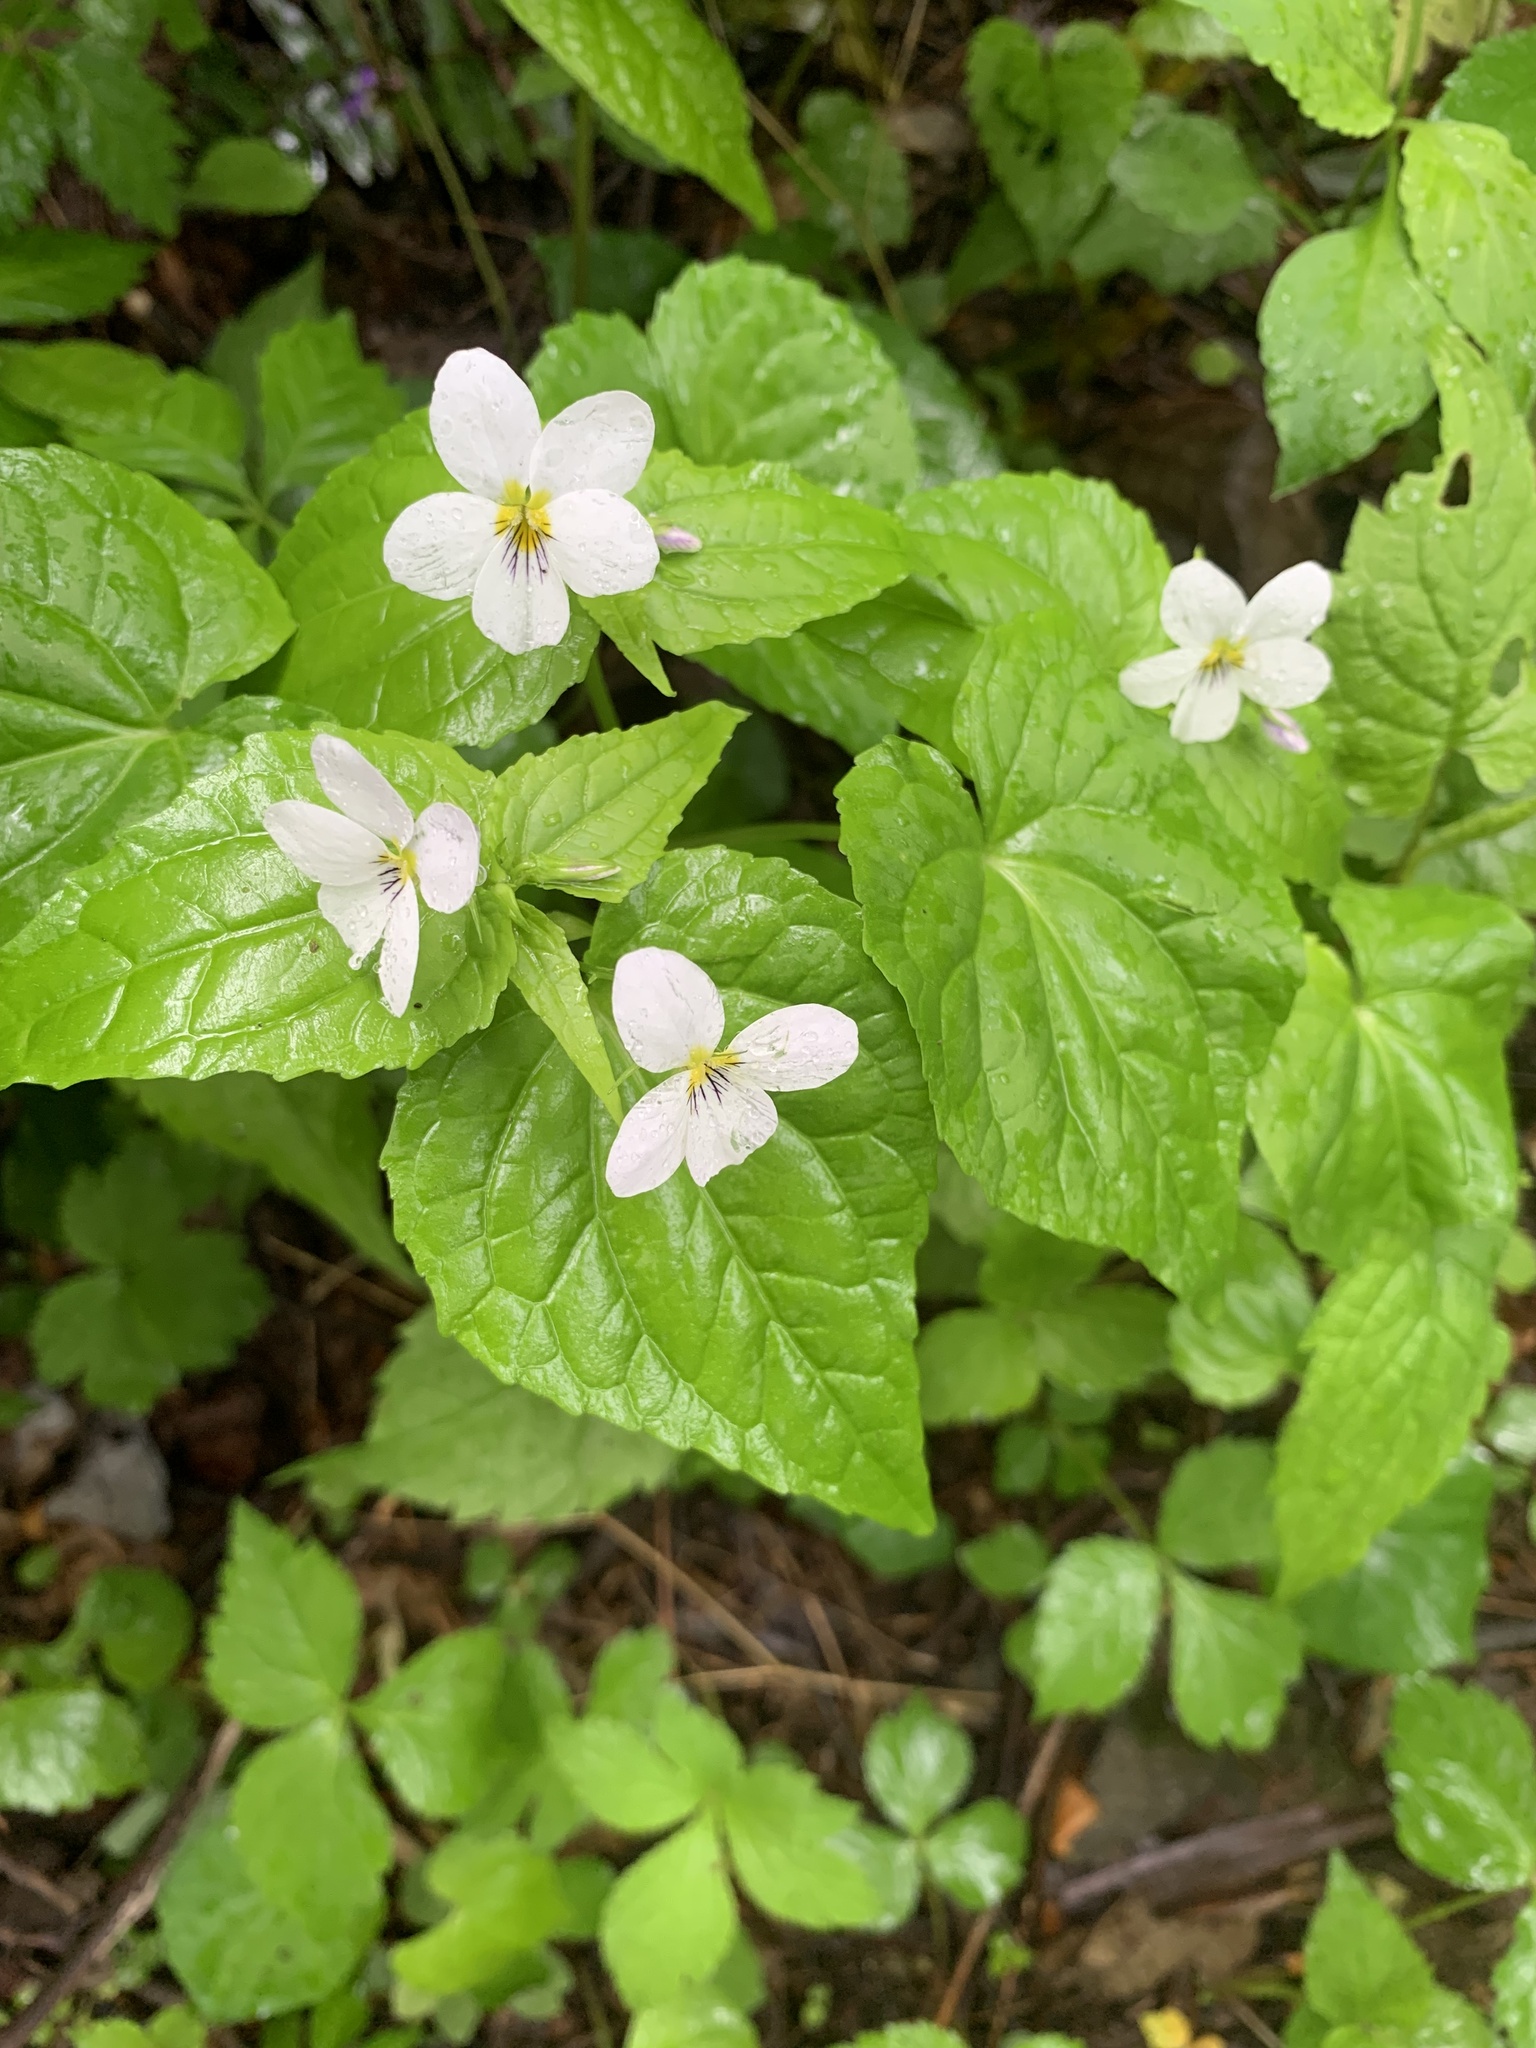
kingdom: Plantae
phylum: Tracheophyta
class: Magnoliopsida
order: Malpighiales
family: Violaceae
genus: Viola
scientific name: Viola canadensis
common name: Canada violet
